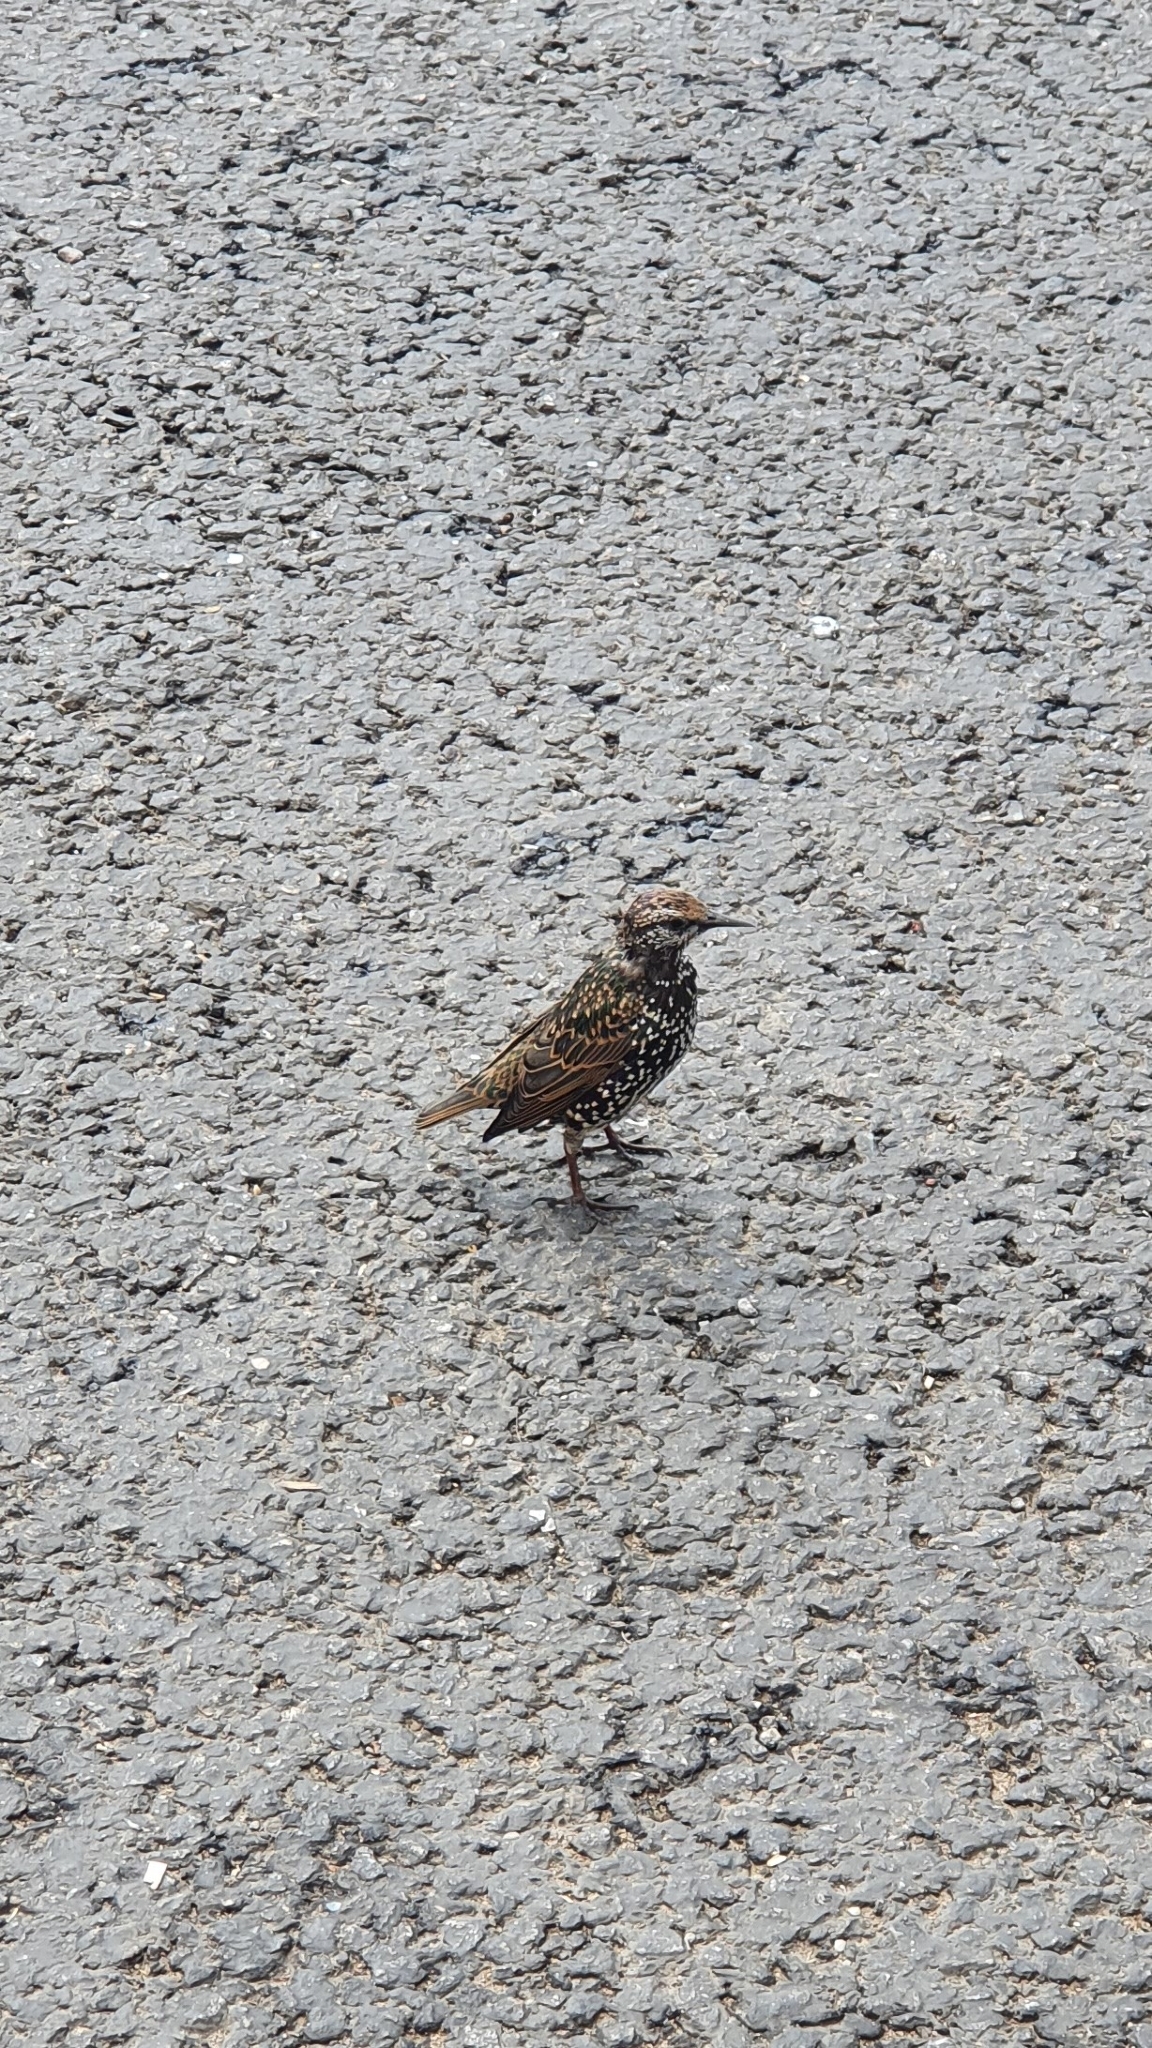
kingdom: Animalia
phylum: Chordata
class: Aves
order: Passeriformes
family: Sturnidae
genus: Sturnus
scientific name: Sturnus vulgaris
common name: Common starling
